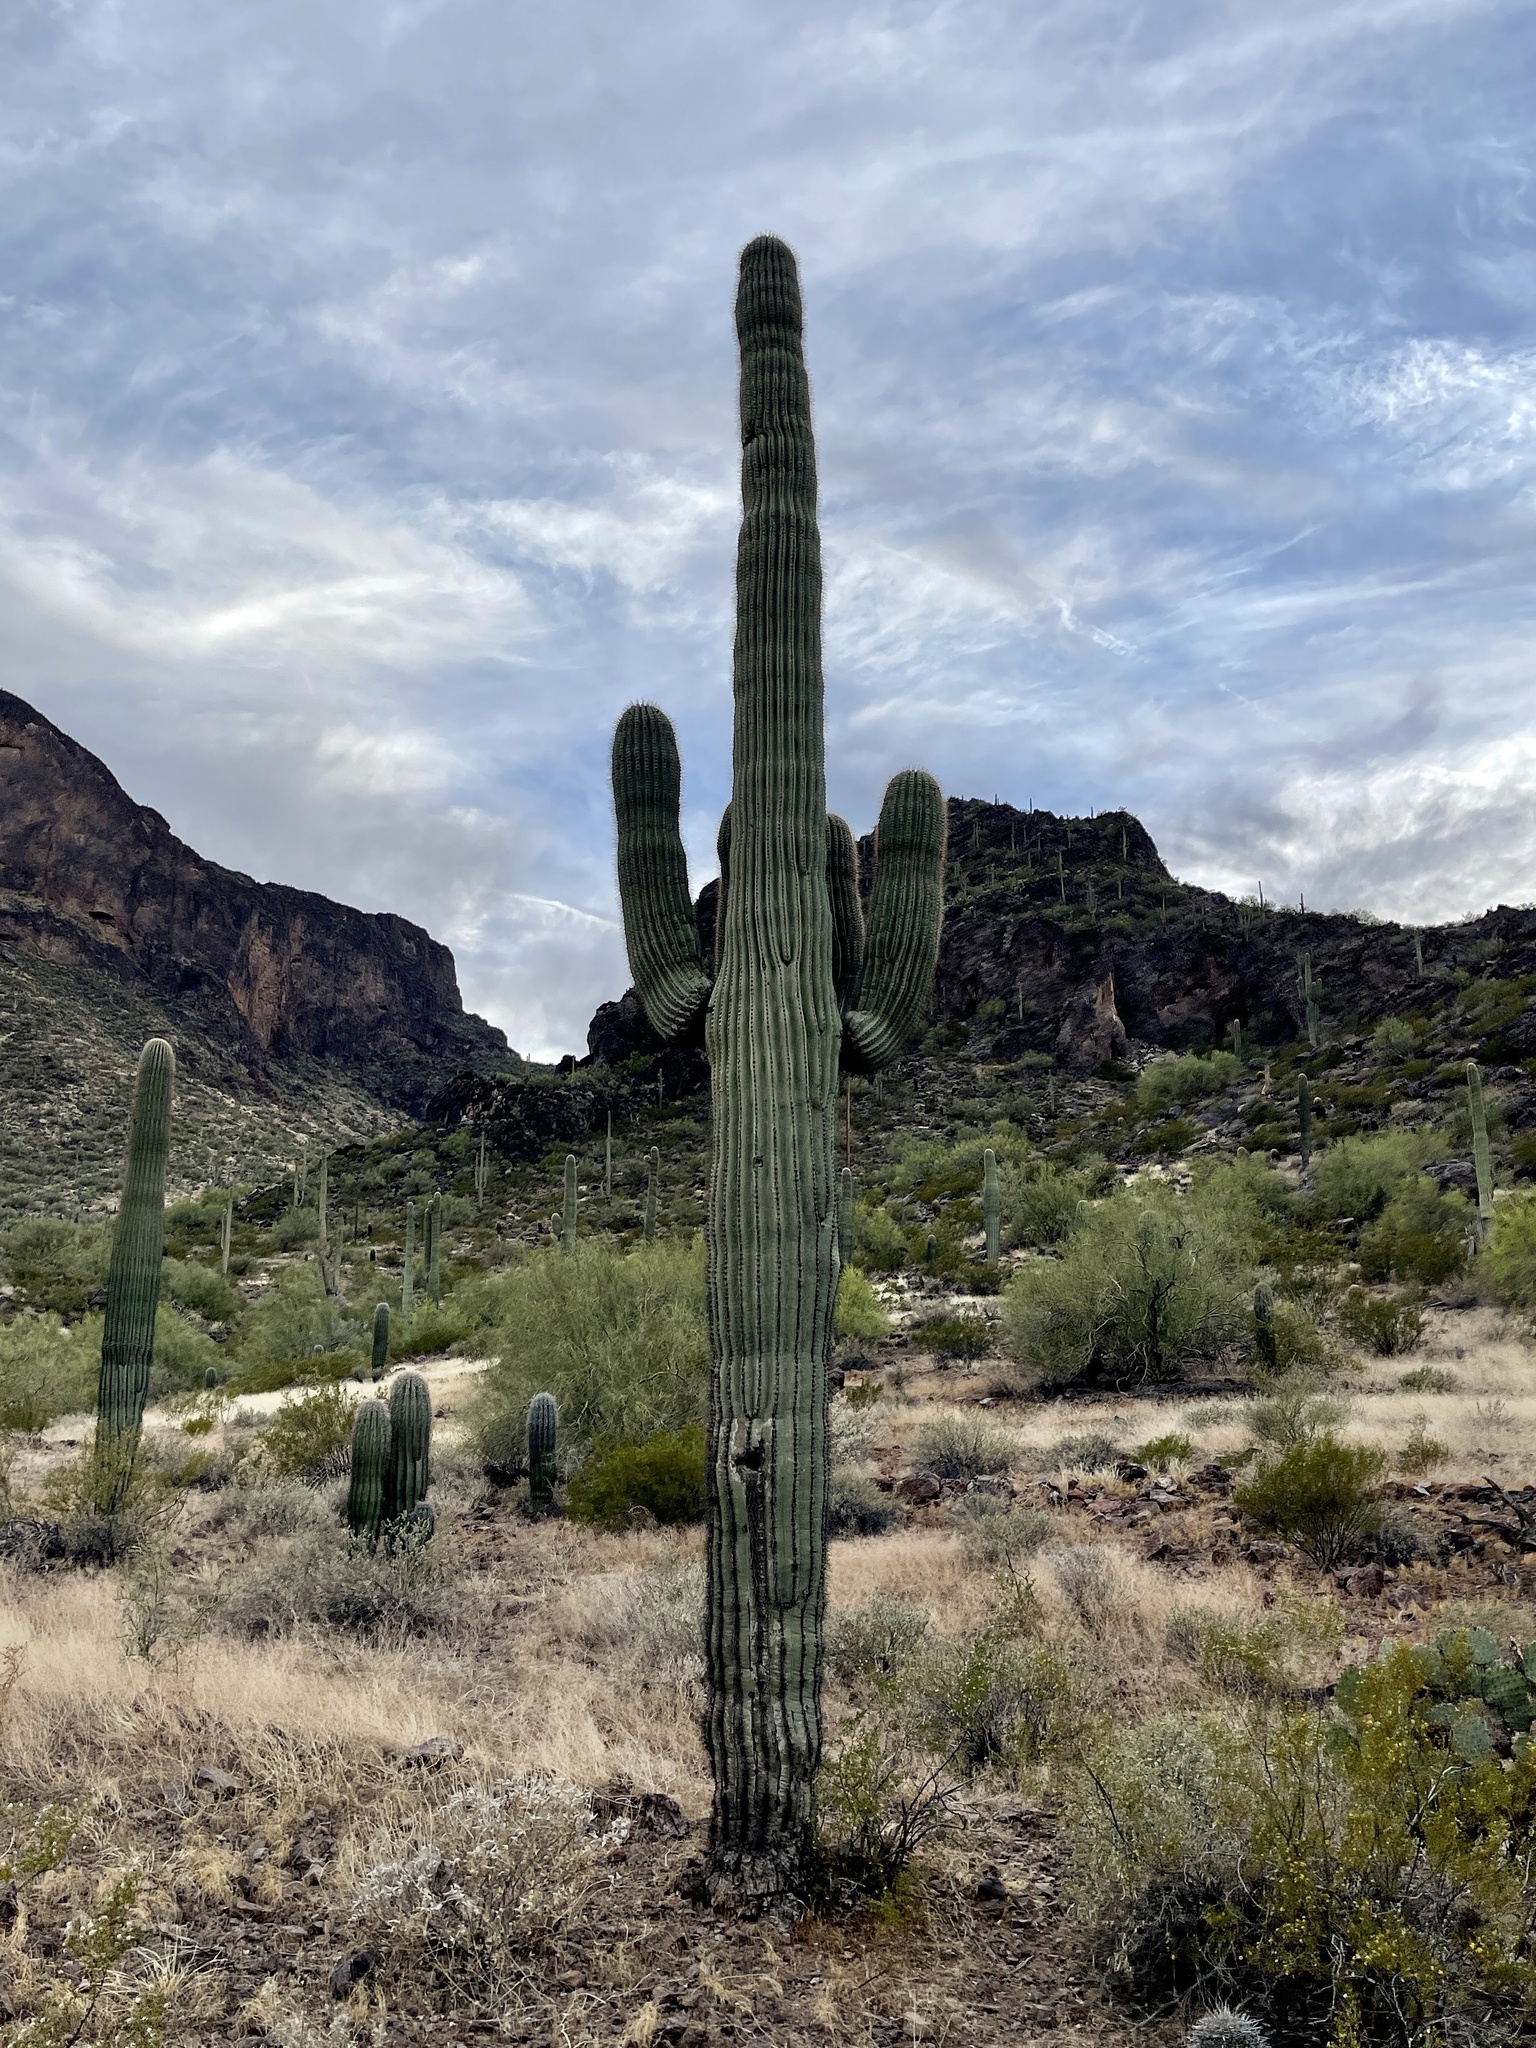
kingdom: Plantae
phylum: Tracheophyta
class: Magnoliopsida
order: Caryophyllales
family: Cactaceae
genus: Carnegiea
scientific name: Carnegiea gigantea
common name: Saguaro
